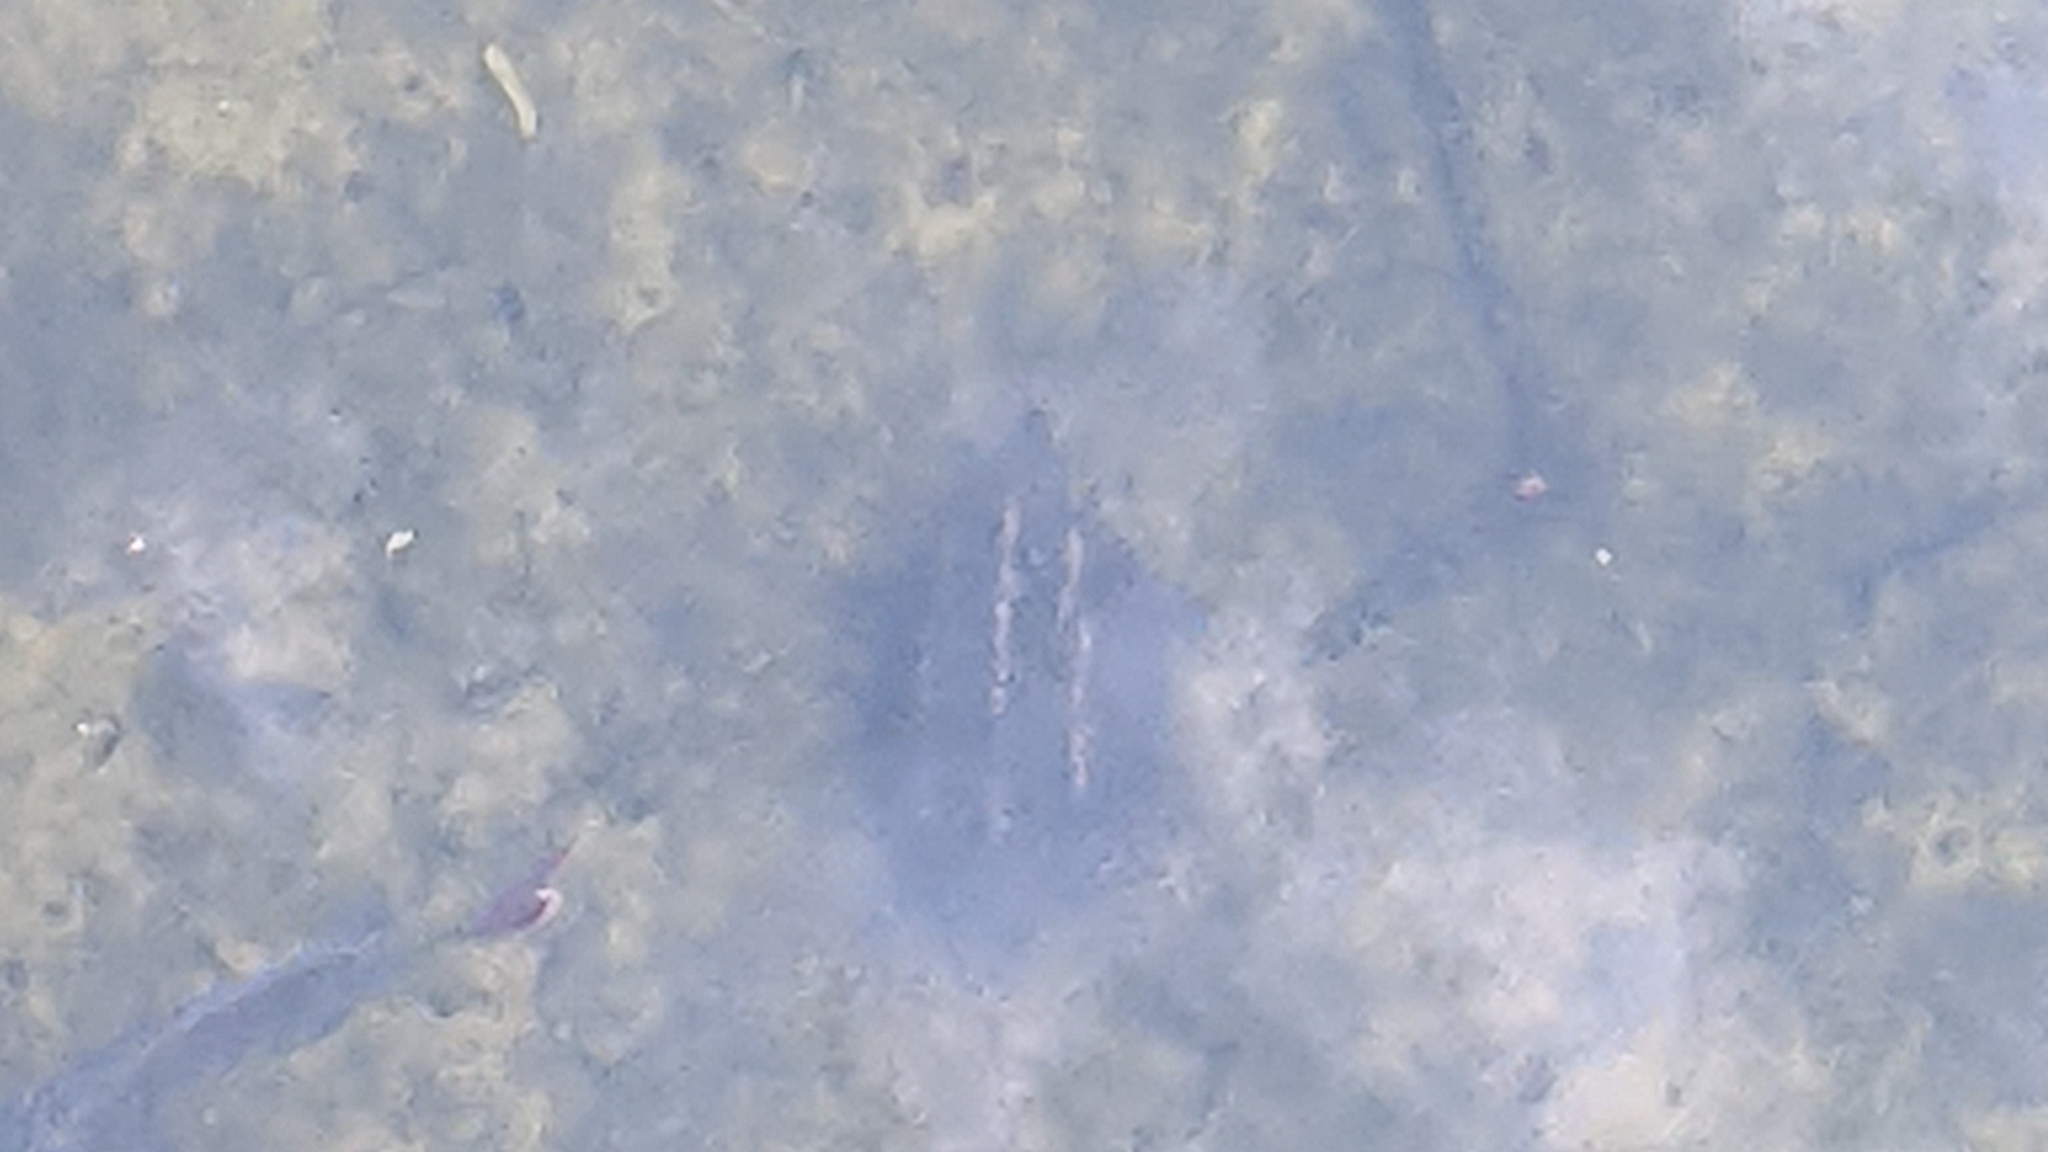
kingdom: Animalia
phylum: Chordata
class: Testudines
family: Kinosternidae
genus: Kinosternon
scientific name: Kinosternon baurii
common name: Striped mud turtle
